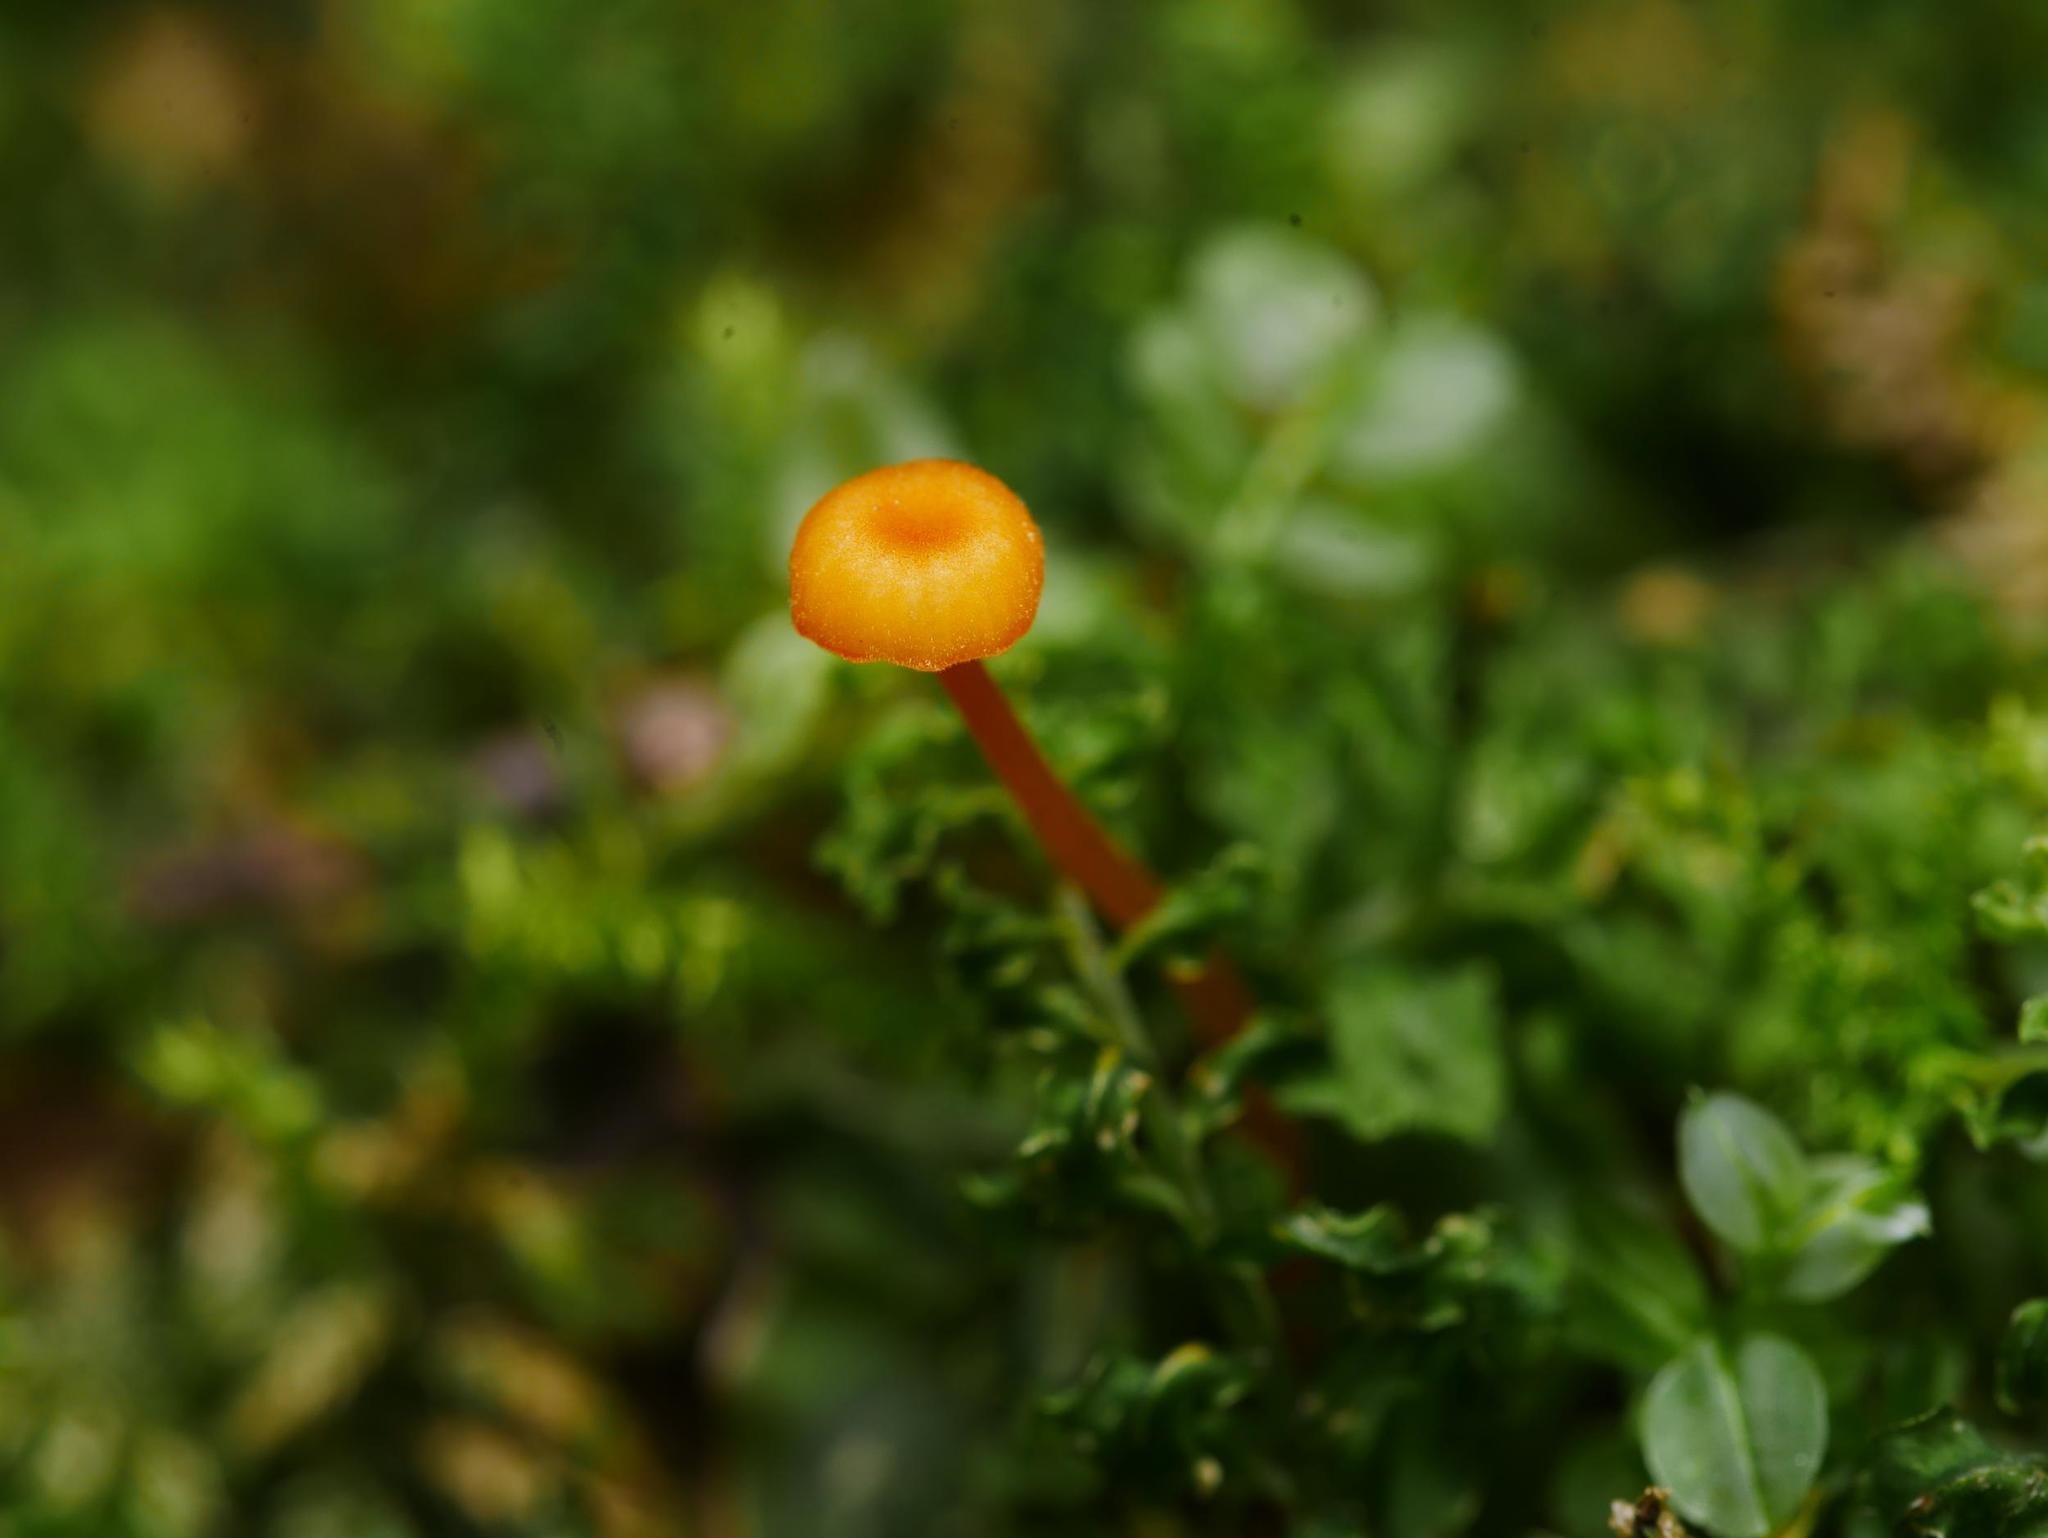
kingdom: Fungi
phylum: Basidiomycota
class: Agaricomycetes
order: Hymenochaetales
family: Rickenellaceae
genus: Rickenella
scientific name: Rickenella fibula
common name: Orange mosscap
